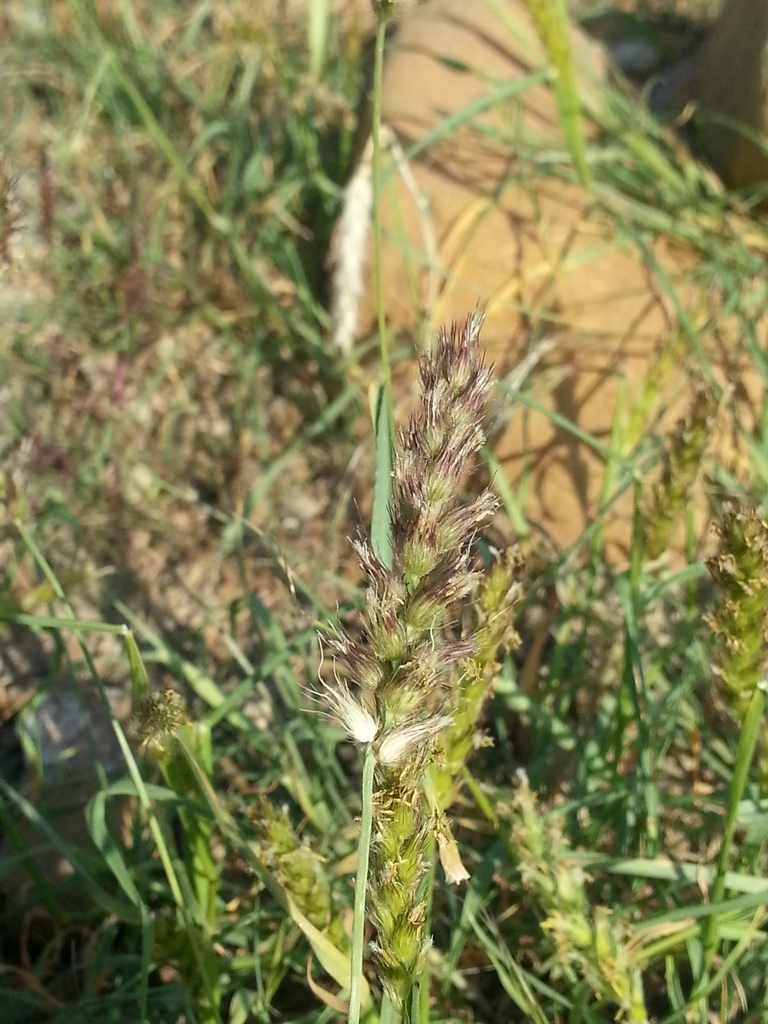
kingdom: Plantae
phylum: Tracheophyta
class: Liliopsida
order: Poales
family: Poaceae
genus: Cenchrus
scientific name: Cenchrus ciliaris
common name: Buffelgrass
